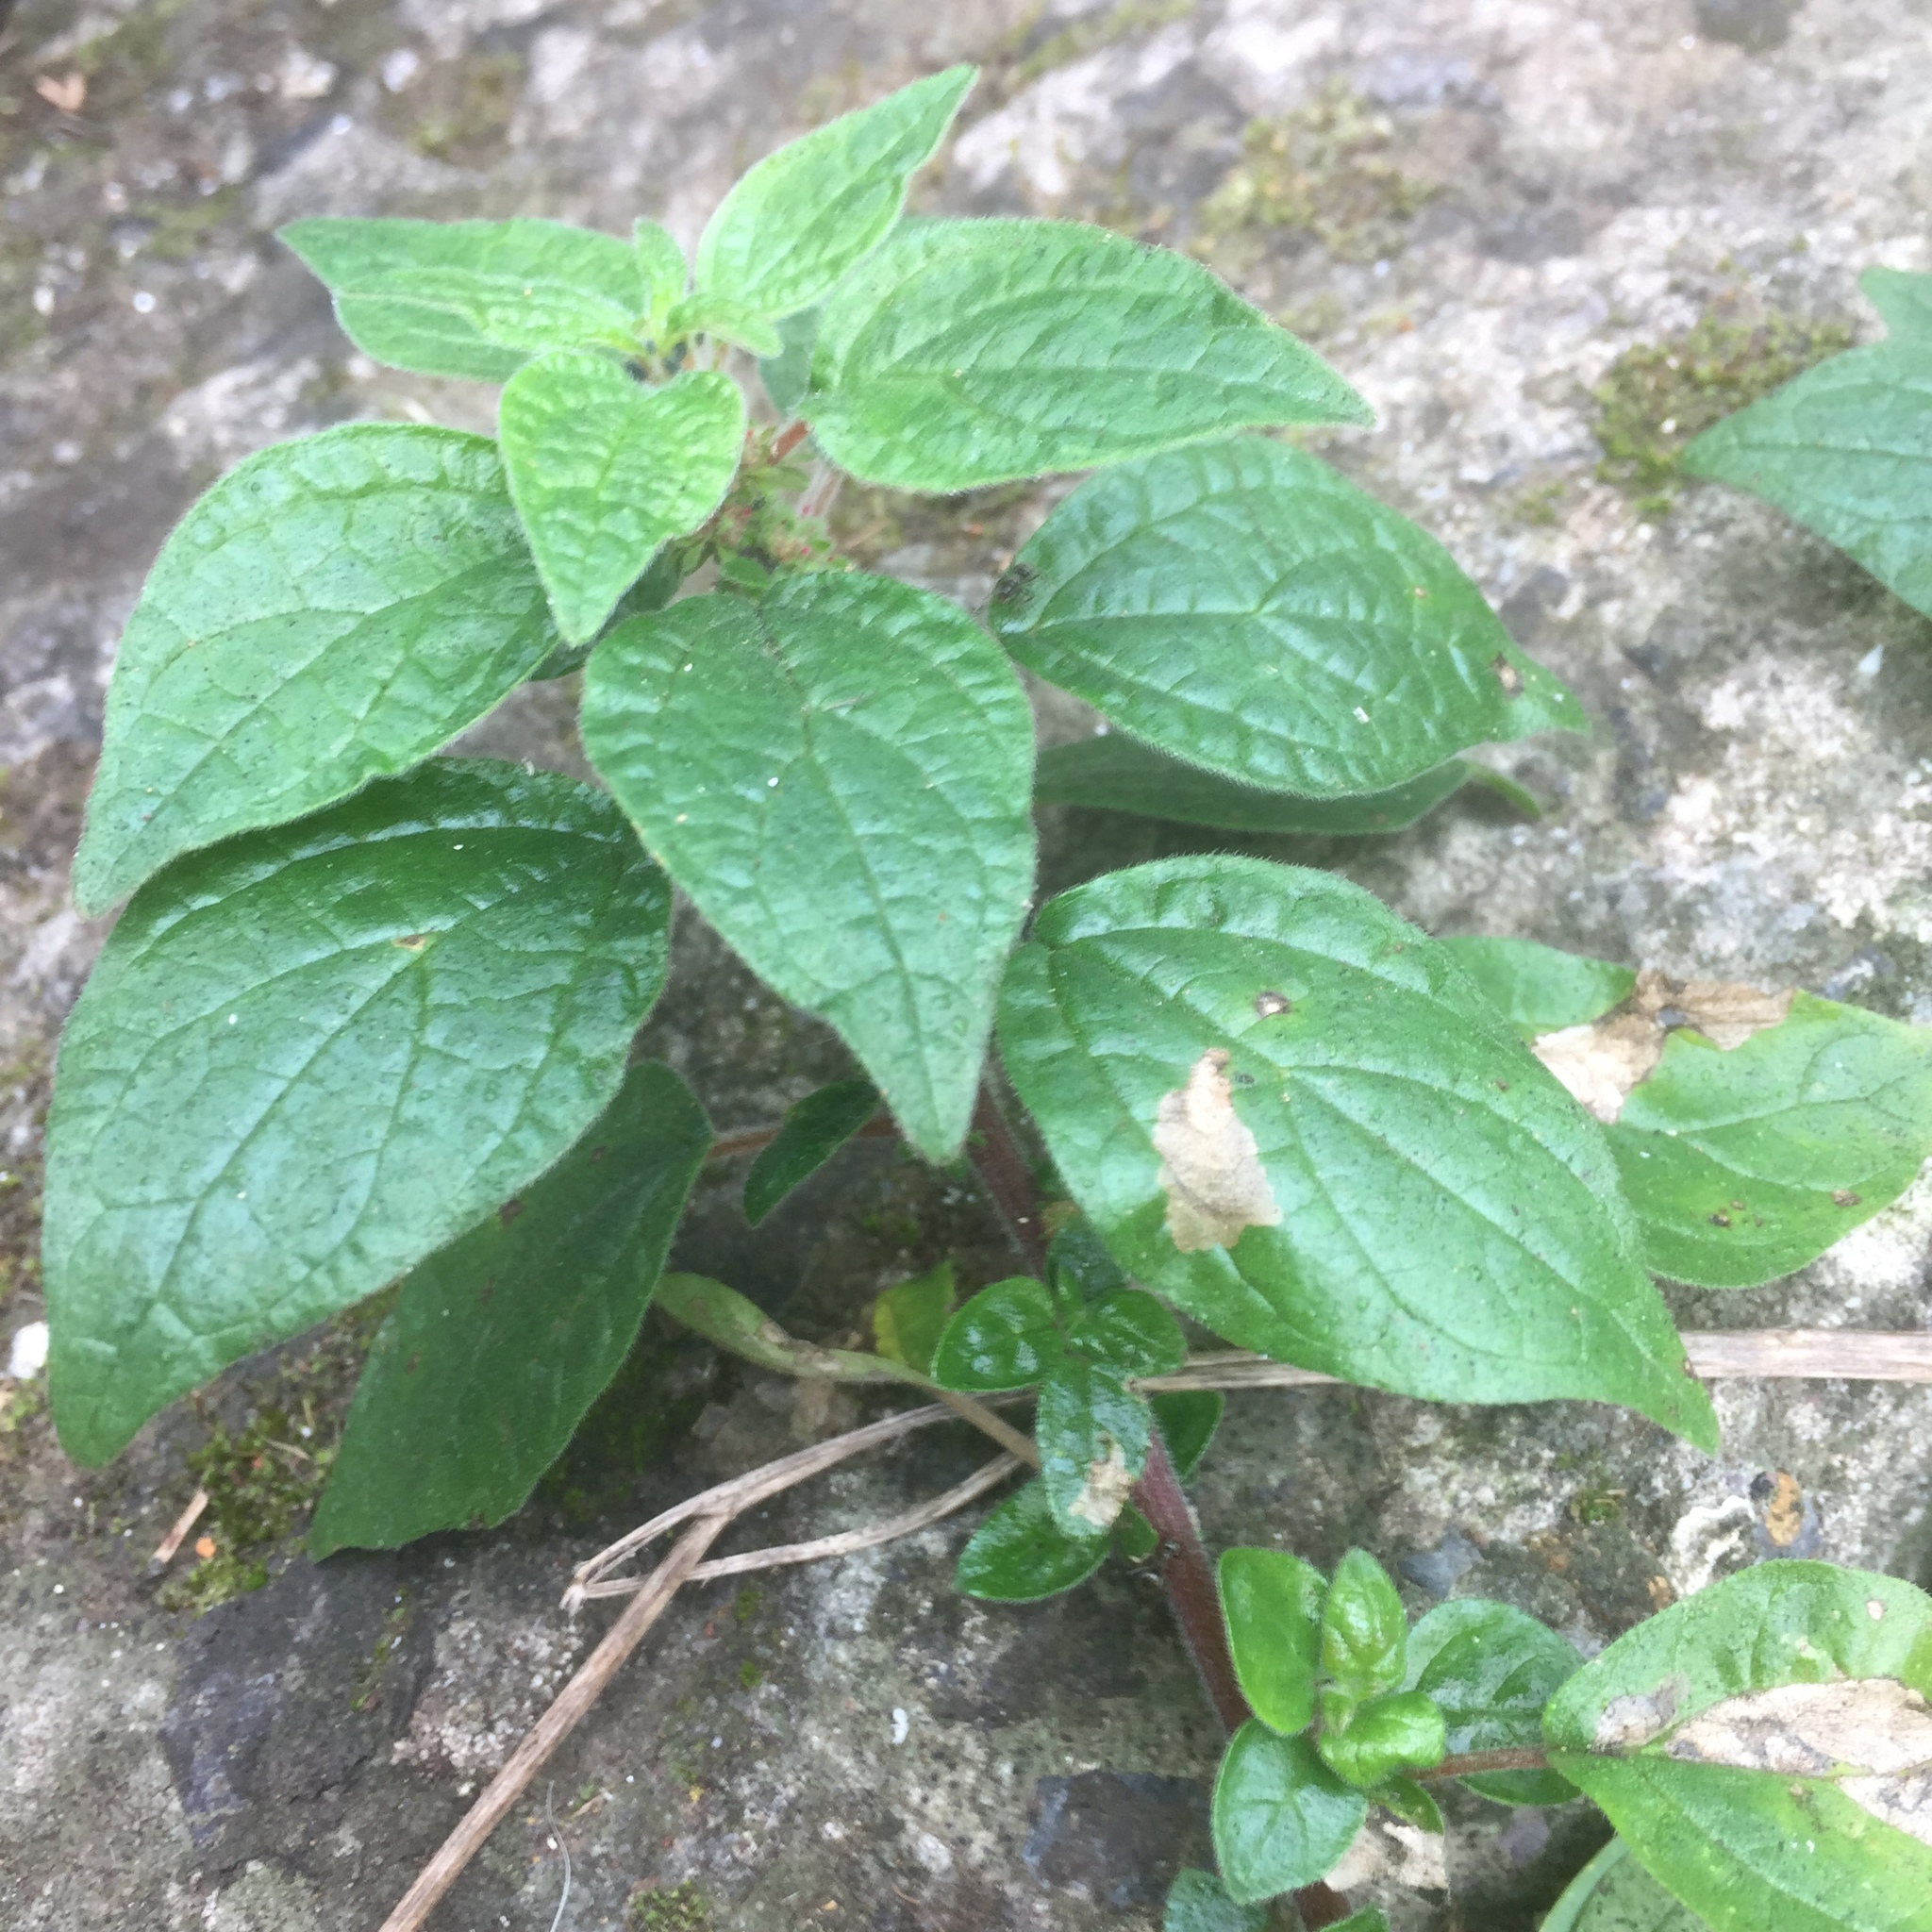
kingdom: Plantae
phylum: Tracheophyta
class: Magnoliopsida
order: Rosales
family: Urticaceae
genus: Parietaria
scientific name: Parietaria judaica
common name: Pellitory-of-the-wall
